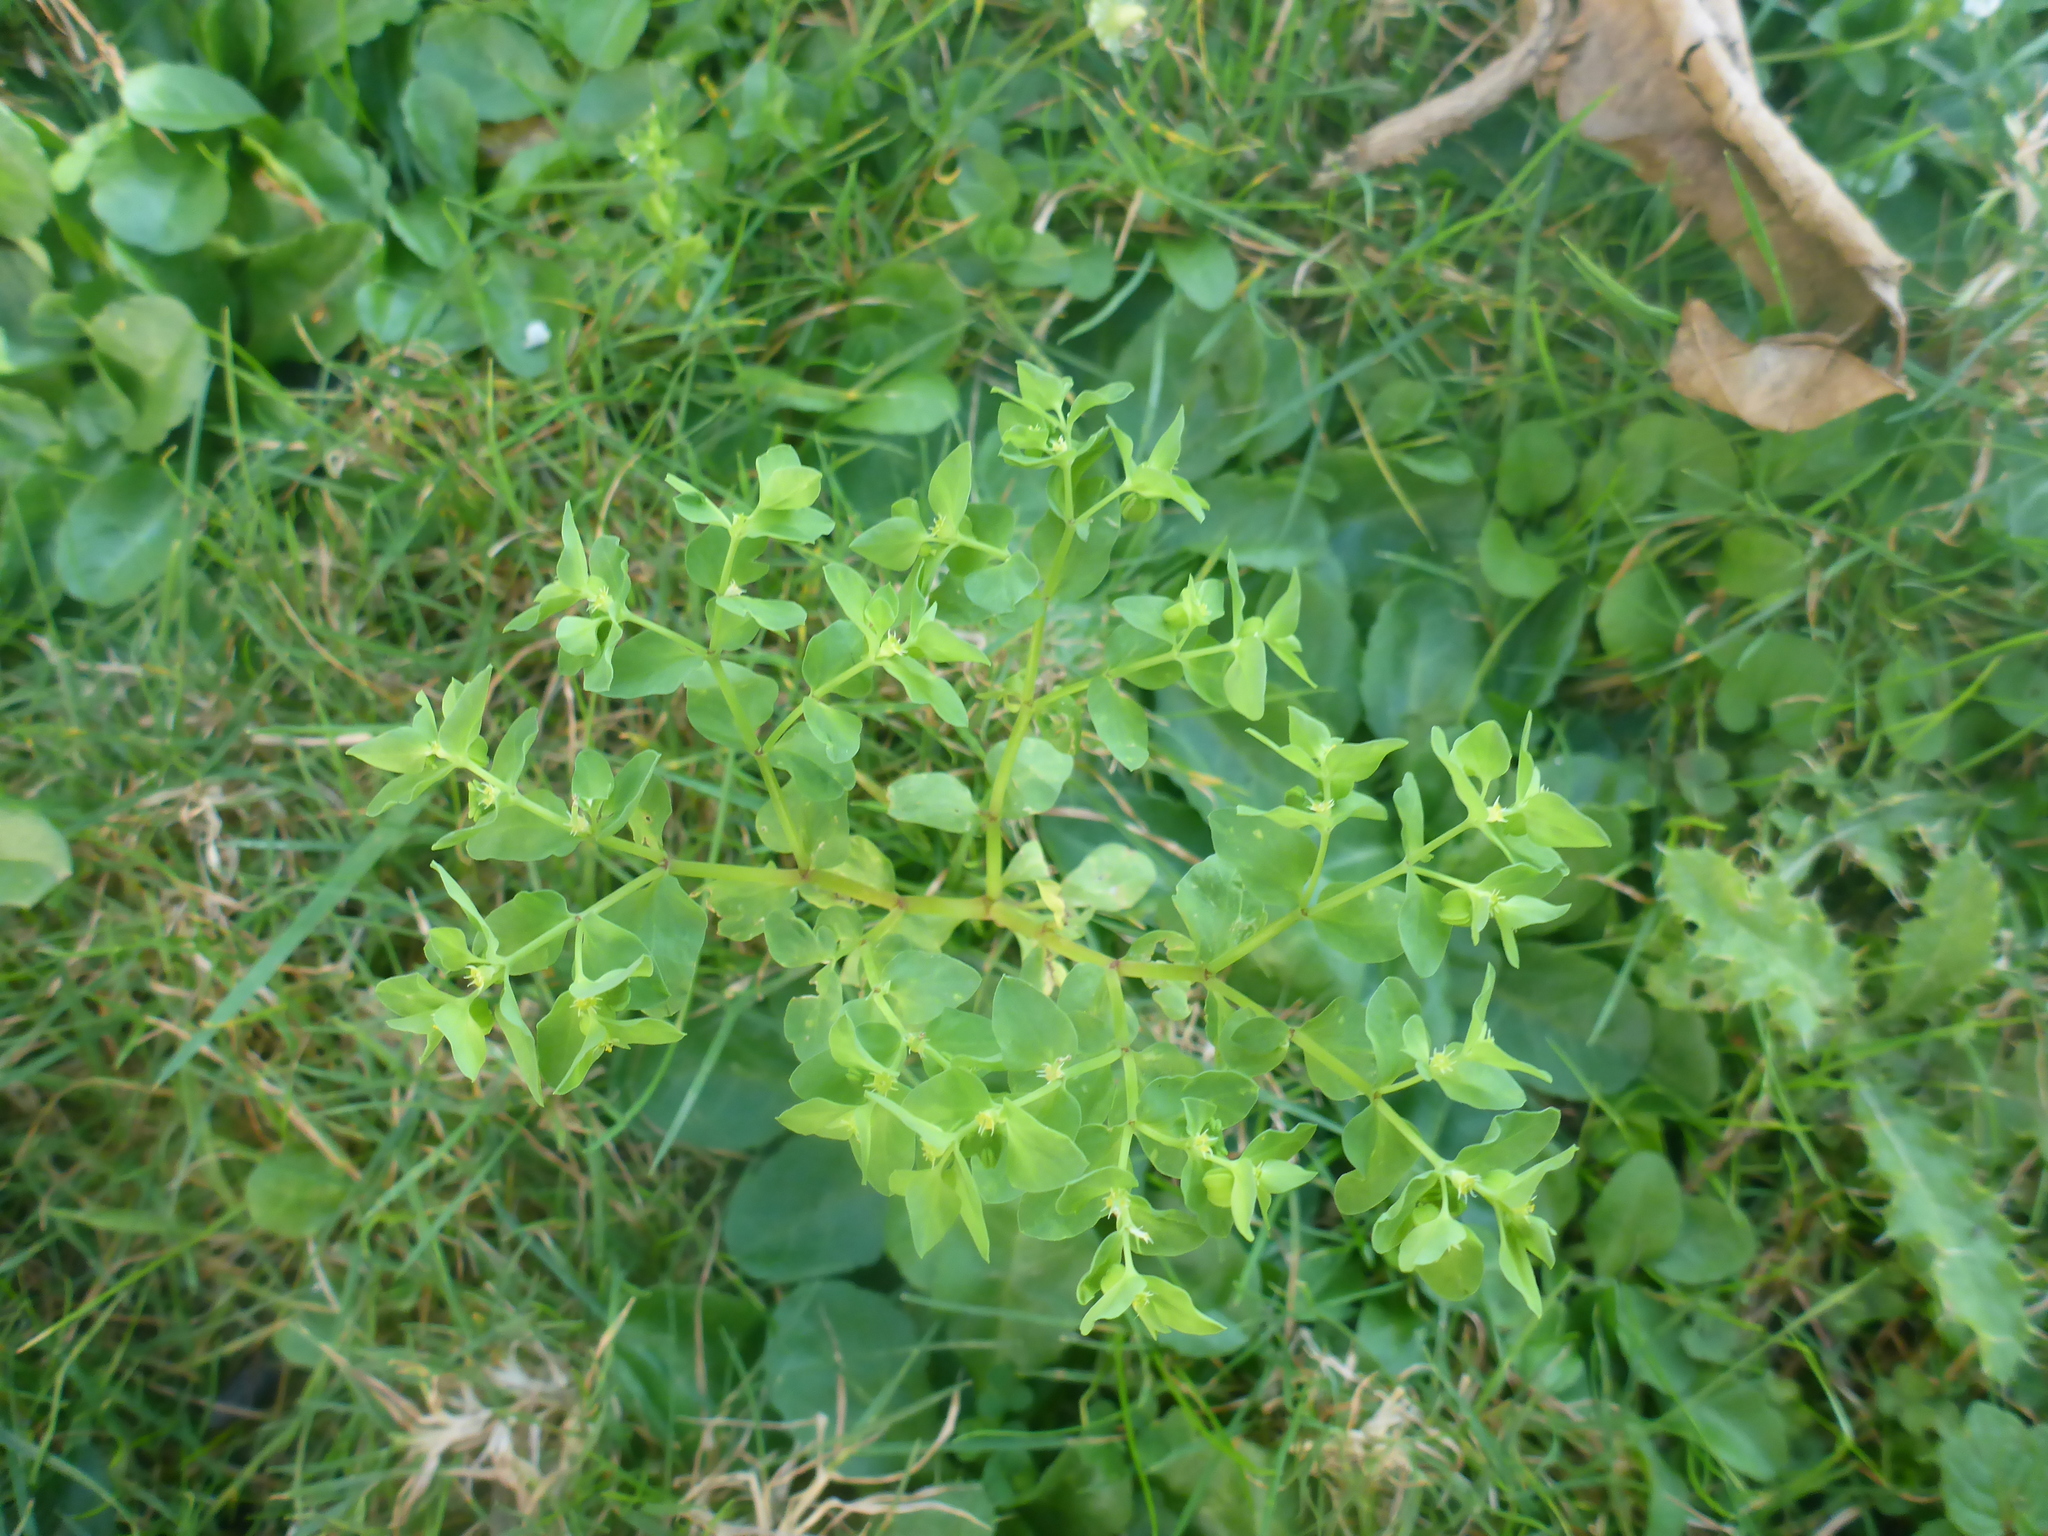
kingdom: Plantae
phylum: Tracheophyta
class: Magnoliopsida
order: Malpighiales
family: Euphorbiaceae
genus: Euphorbia
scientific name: Euphorbia peplus
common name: Petty spurge
